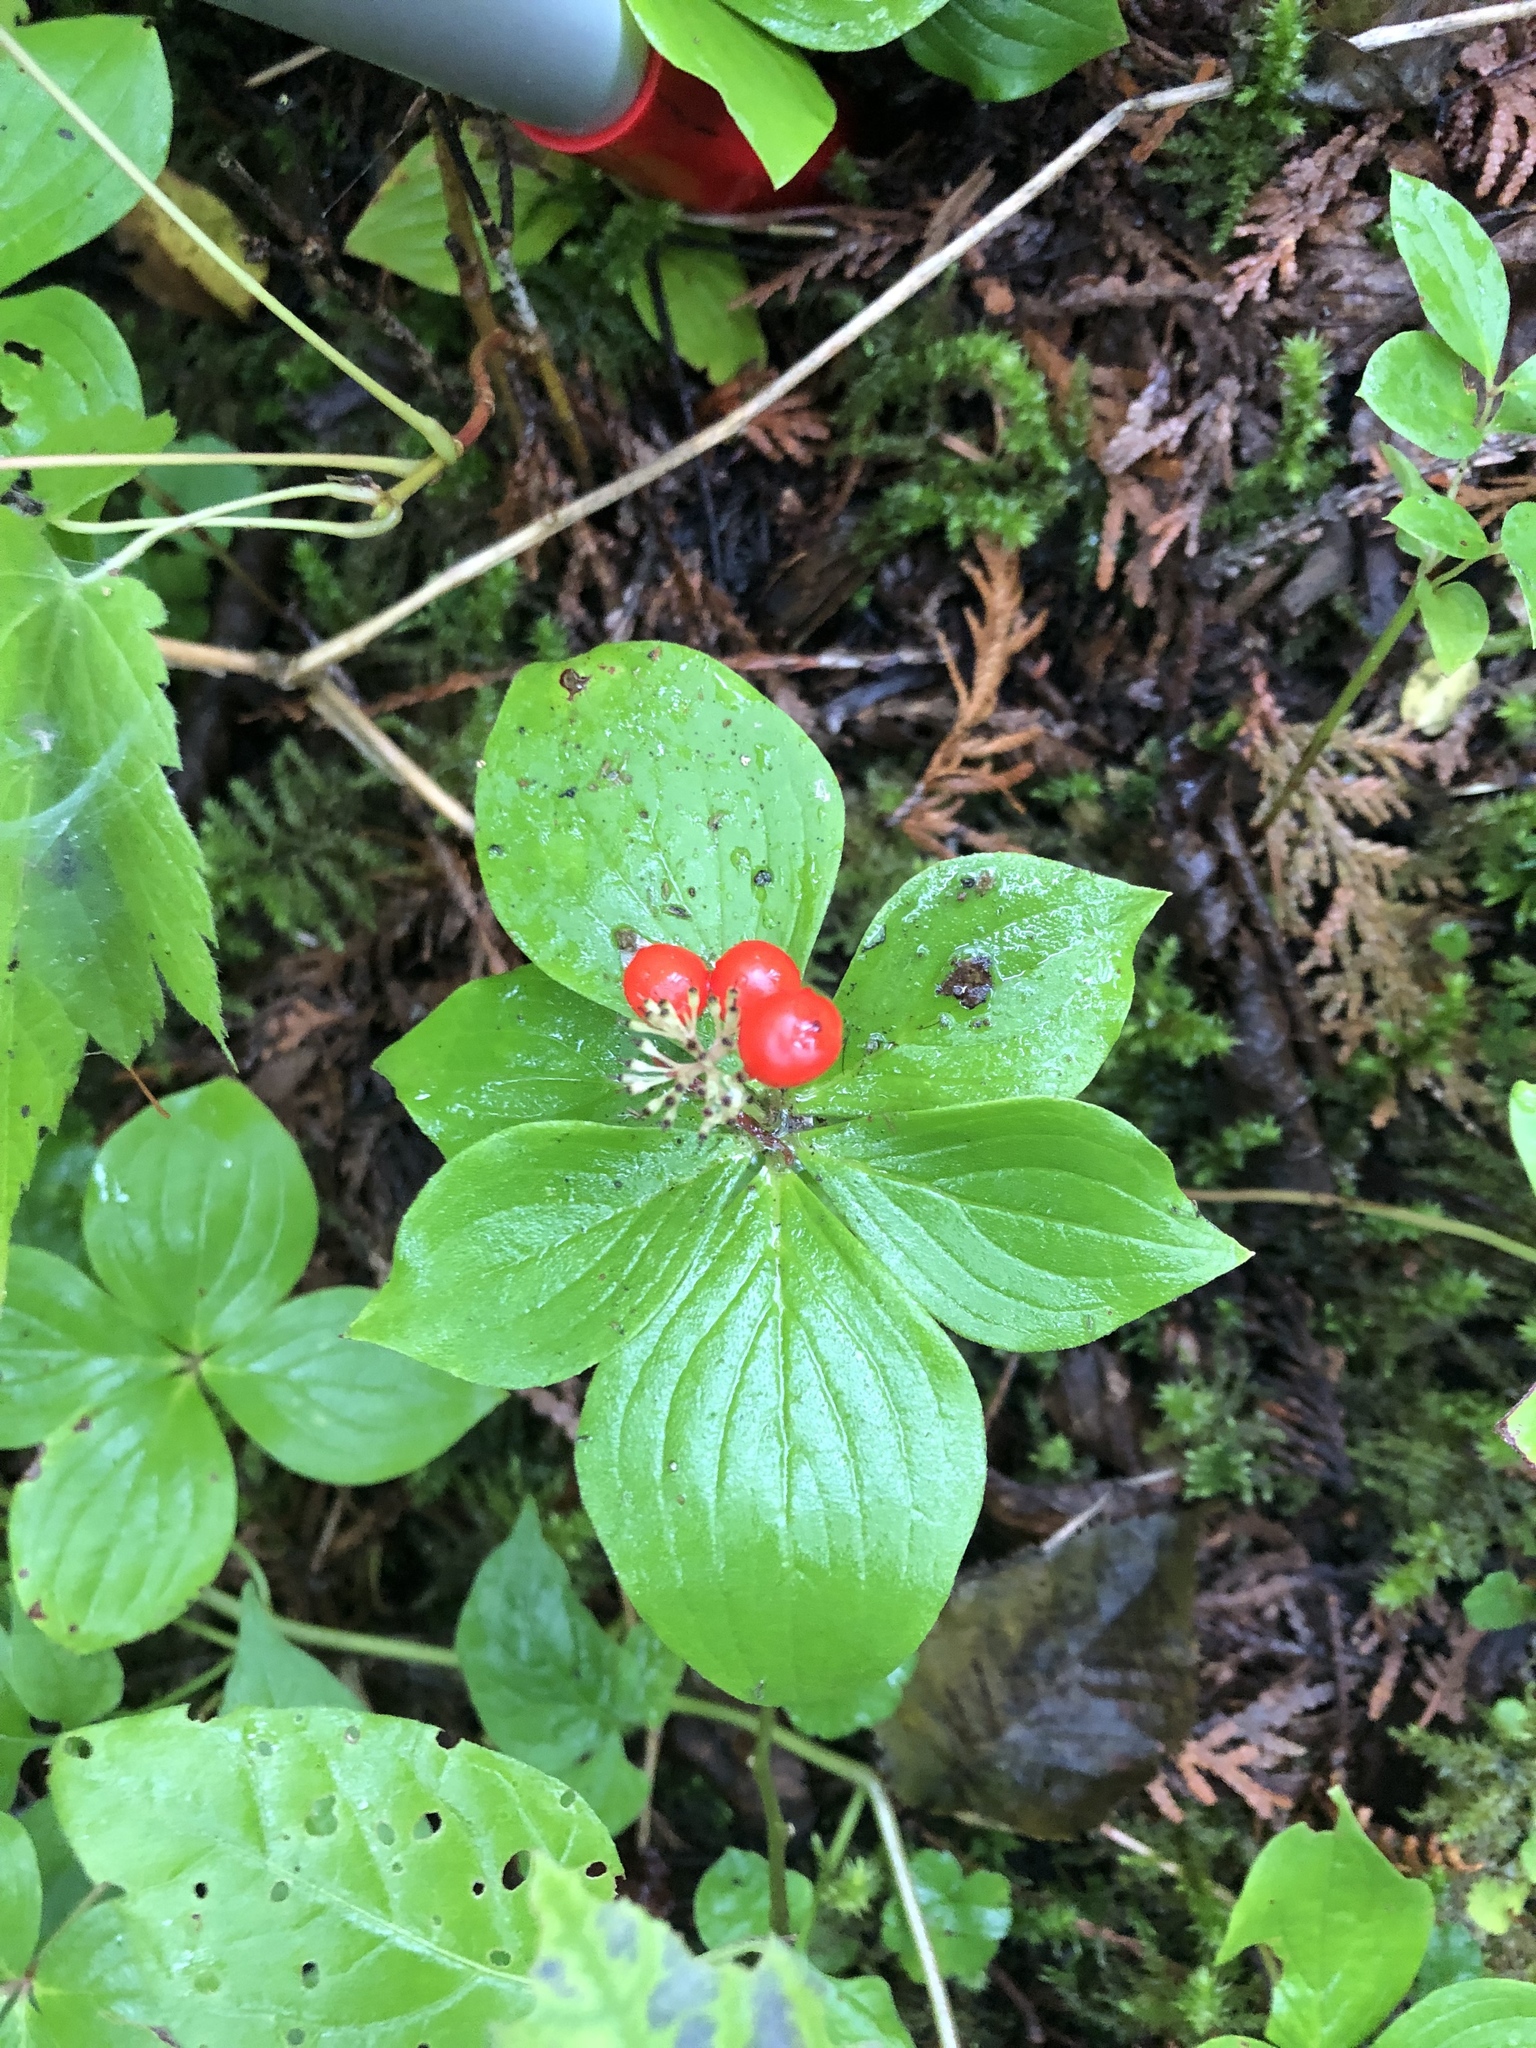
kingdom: Plantae
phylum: Tracheophyta
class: Magnoliopsida
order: Cornales
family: Cornaceae
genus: Cornus
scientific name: Cornus canadensis
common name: Creeping dogwood
